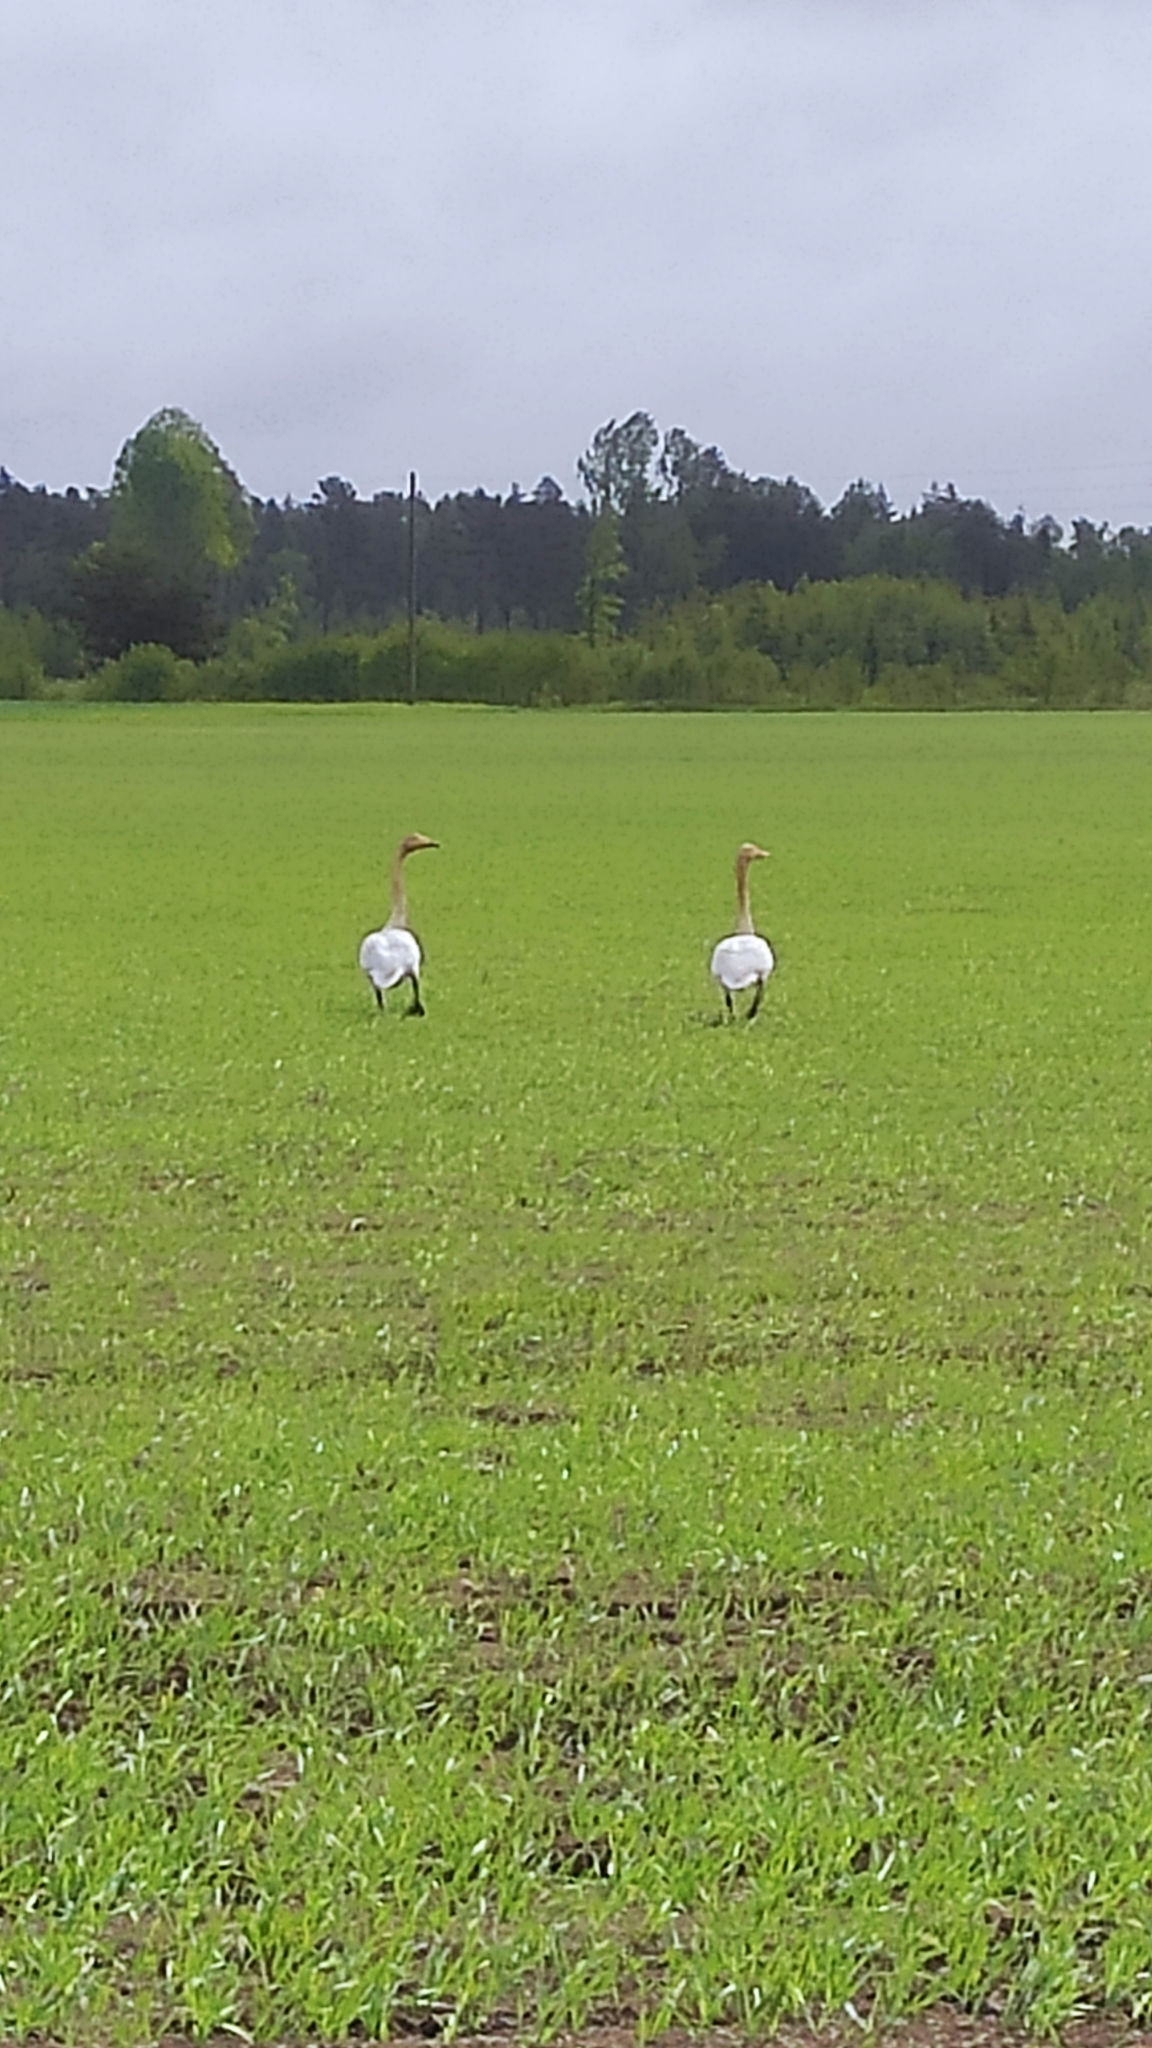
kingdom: Animalia
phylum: Chordata
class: Aves
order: Anseriformes
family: Anatidae
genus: Cygnus
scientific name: Cygnus cygnus
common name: Whooper swan
